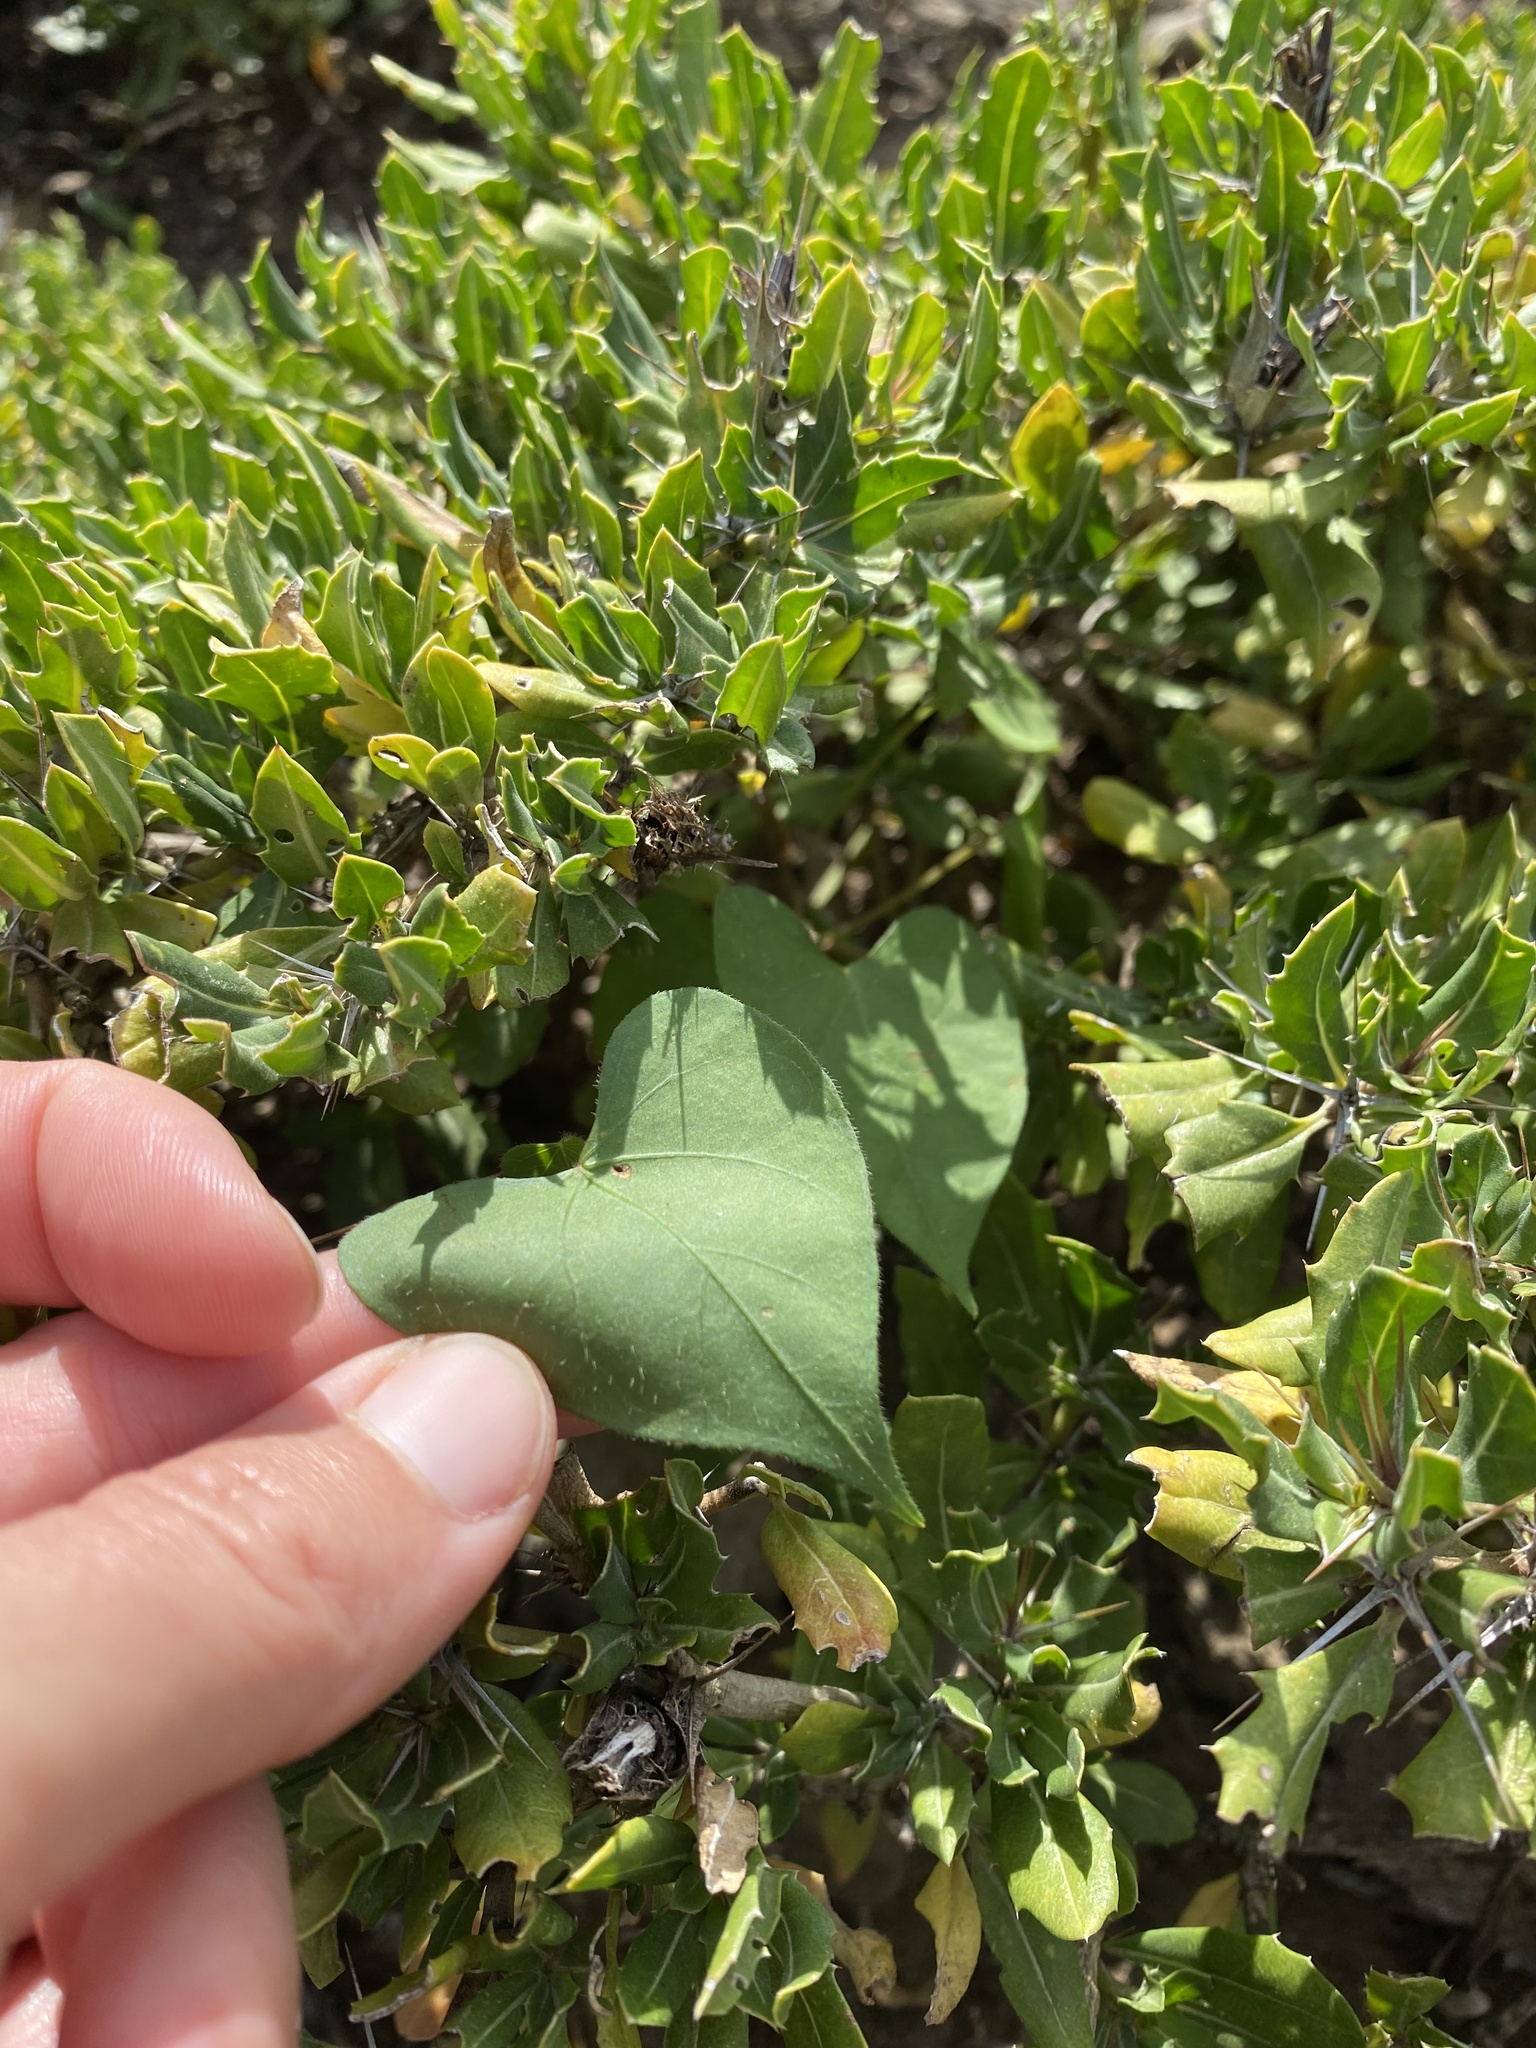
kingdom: Plantae
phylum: Tracheophyta
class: Magnoliopsida
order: Solanales
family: Convolvulaceae
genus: Ipomoea
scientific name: Ipomoea obscura
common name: Obscure morning-glory
